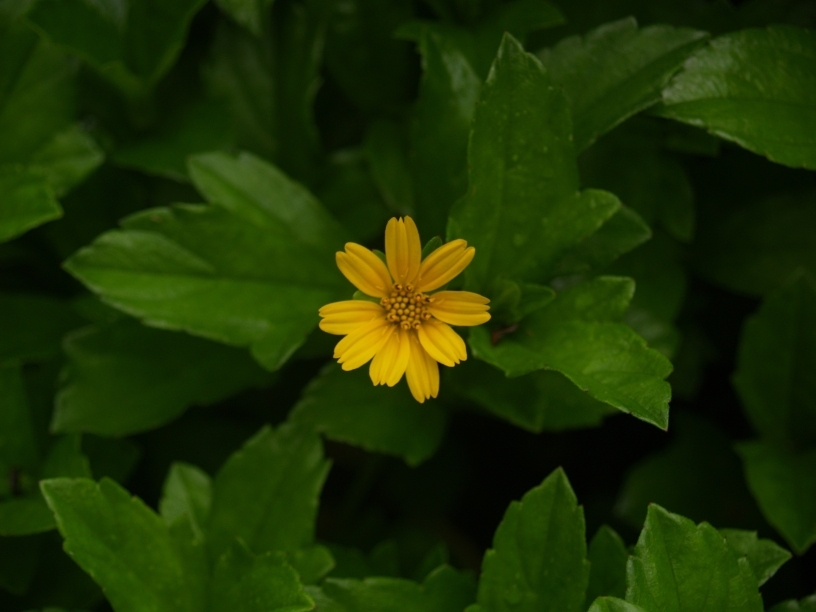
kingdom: Plantae
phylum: Tracheophyta
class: Magnoliopsida
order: Asterales
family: Asteraceae
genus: Sphagneticola
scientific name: Sphagneticola trilobata
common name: Bay biscayne creeping-oxeye
